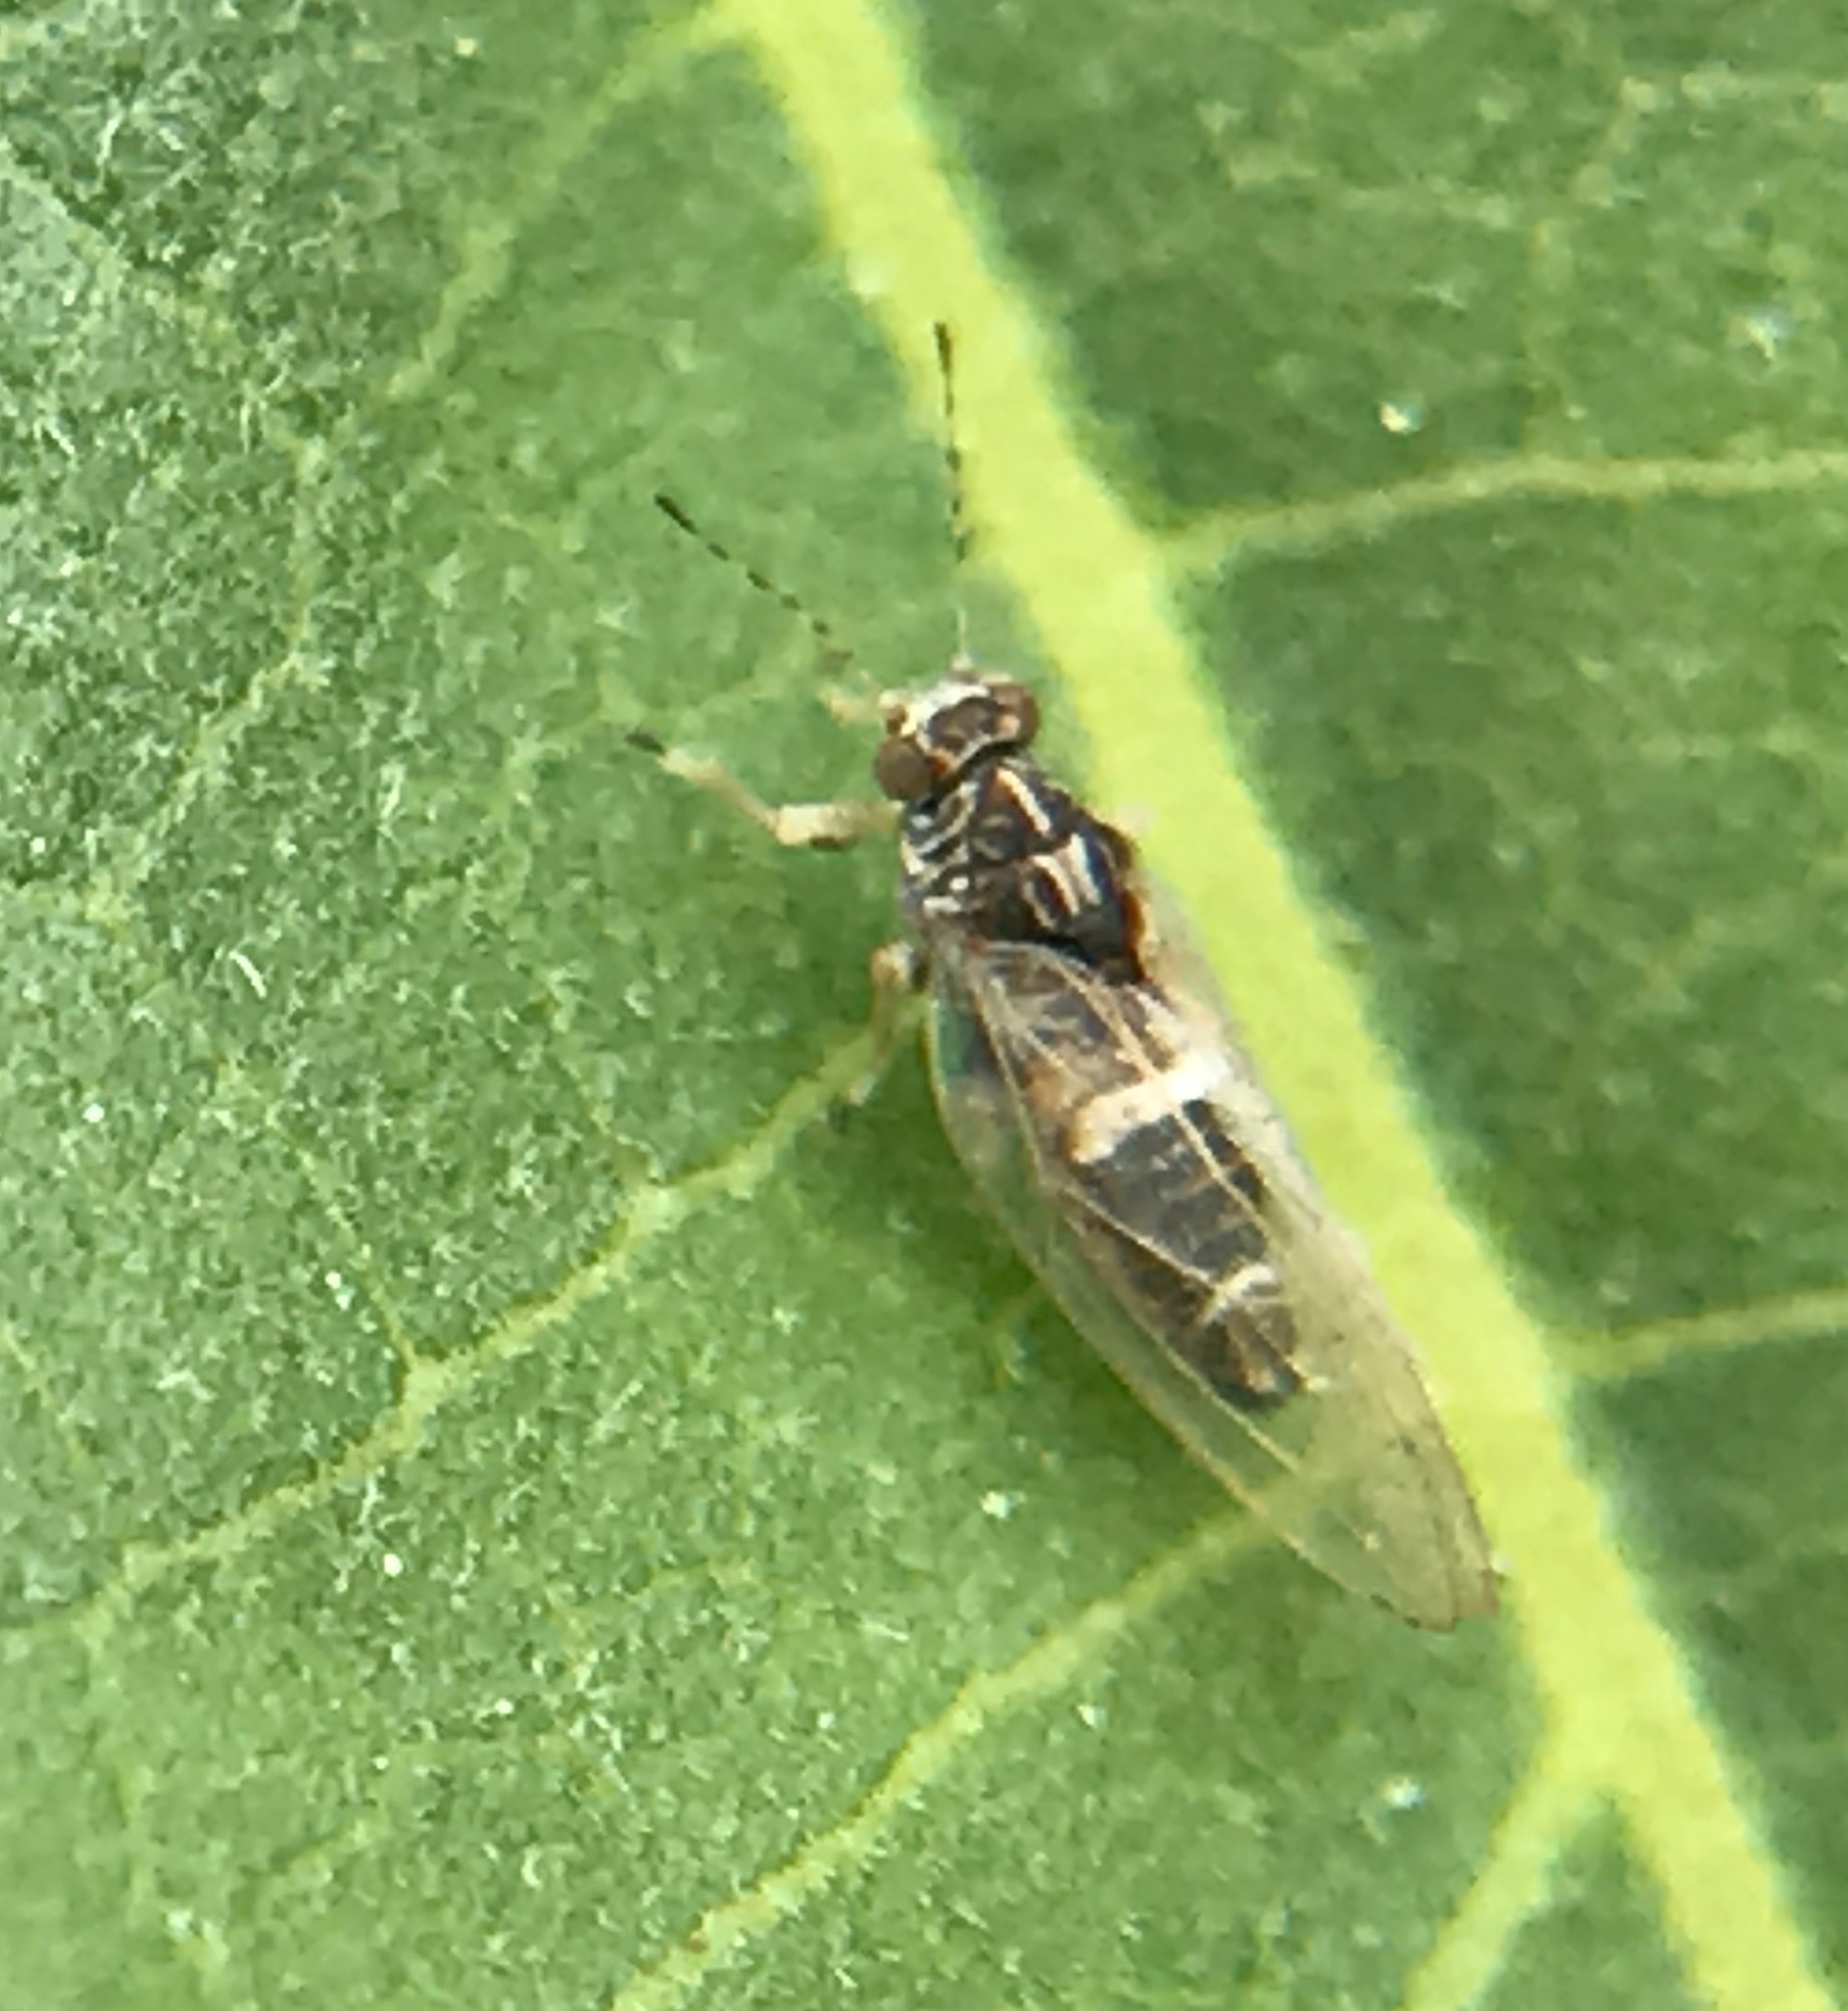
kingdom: Animalia
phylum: Arthropoda
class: Insecta
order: Hemiptera
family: Triozidae
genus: Bactericera
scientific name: Bactericera lavaterae
